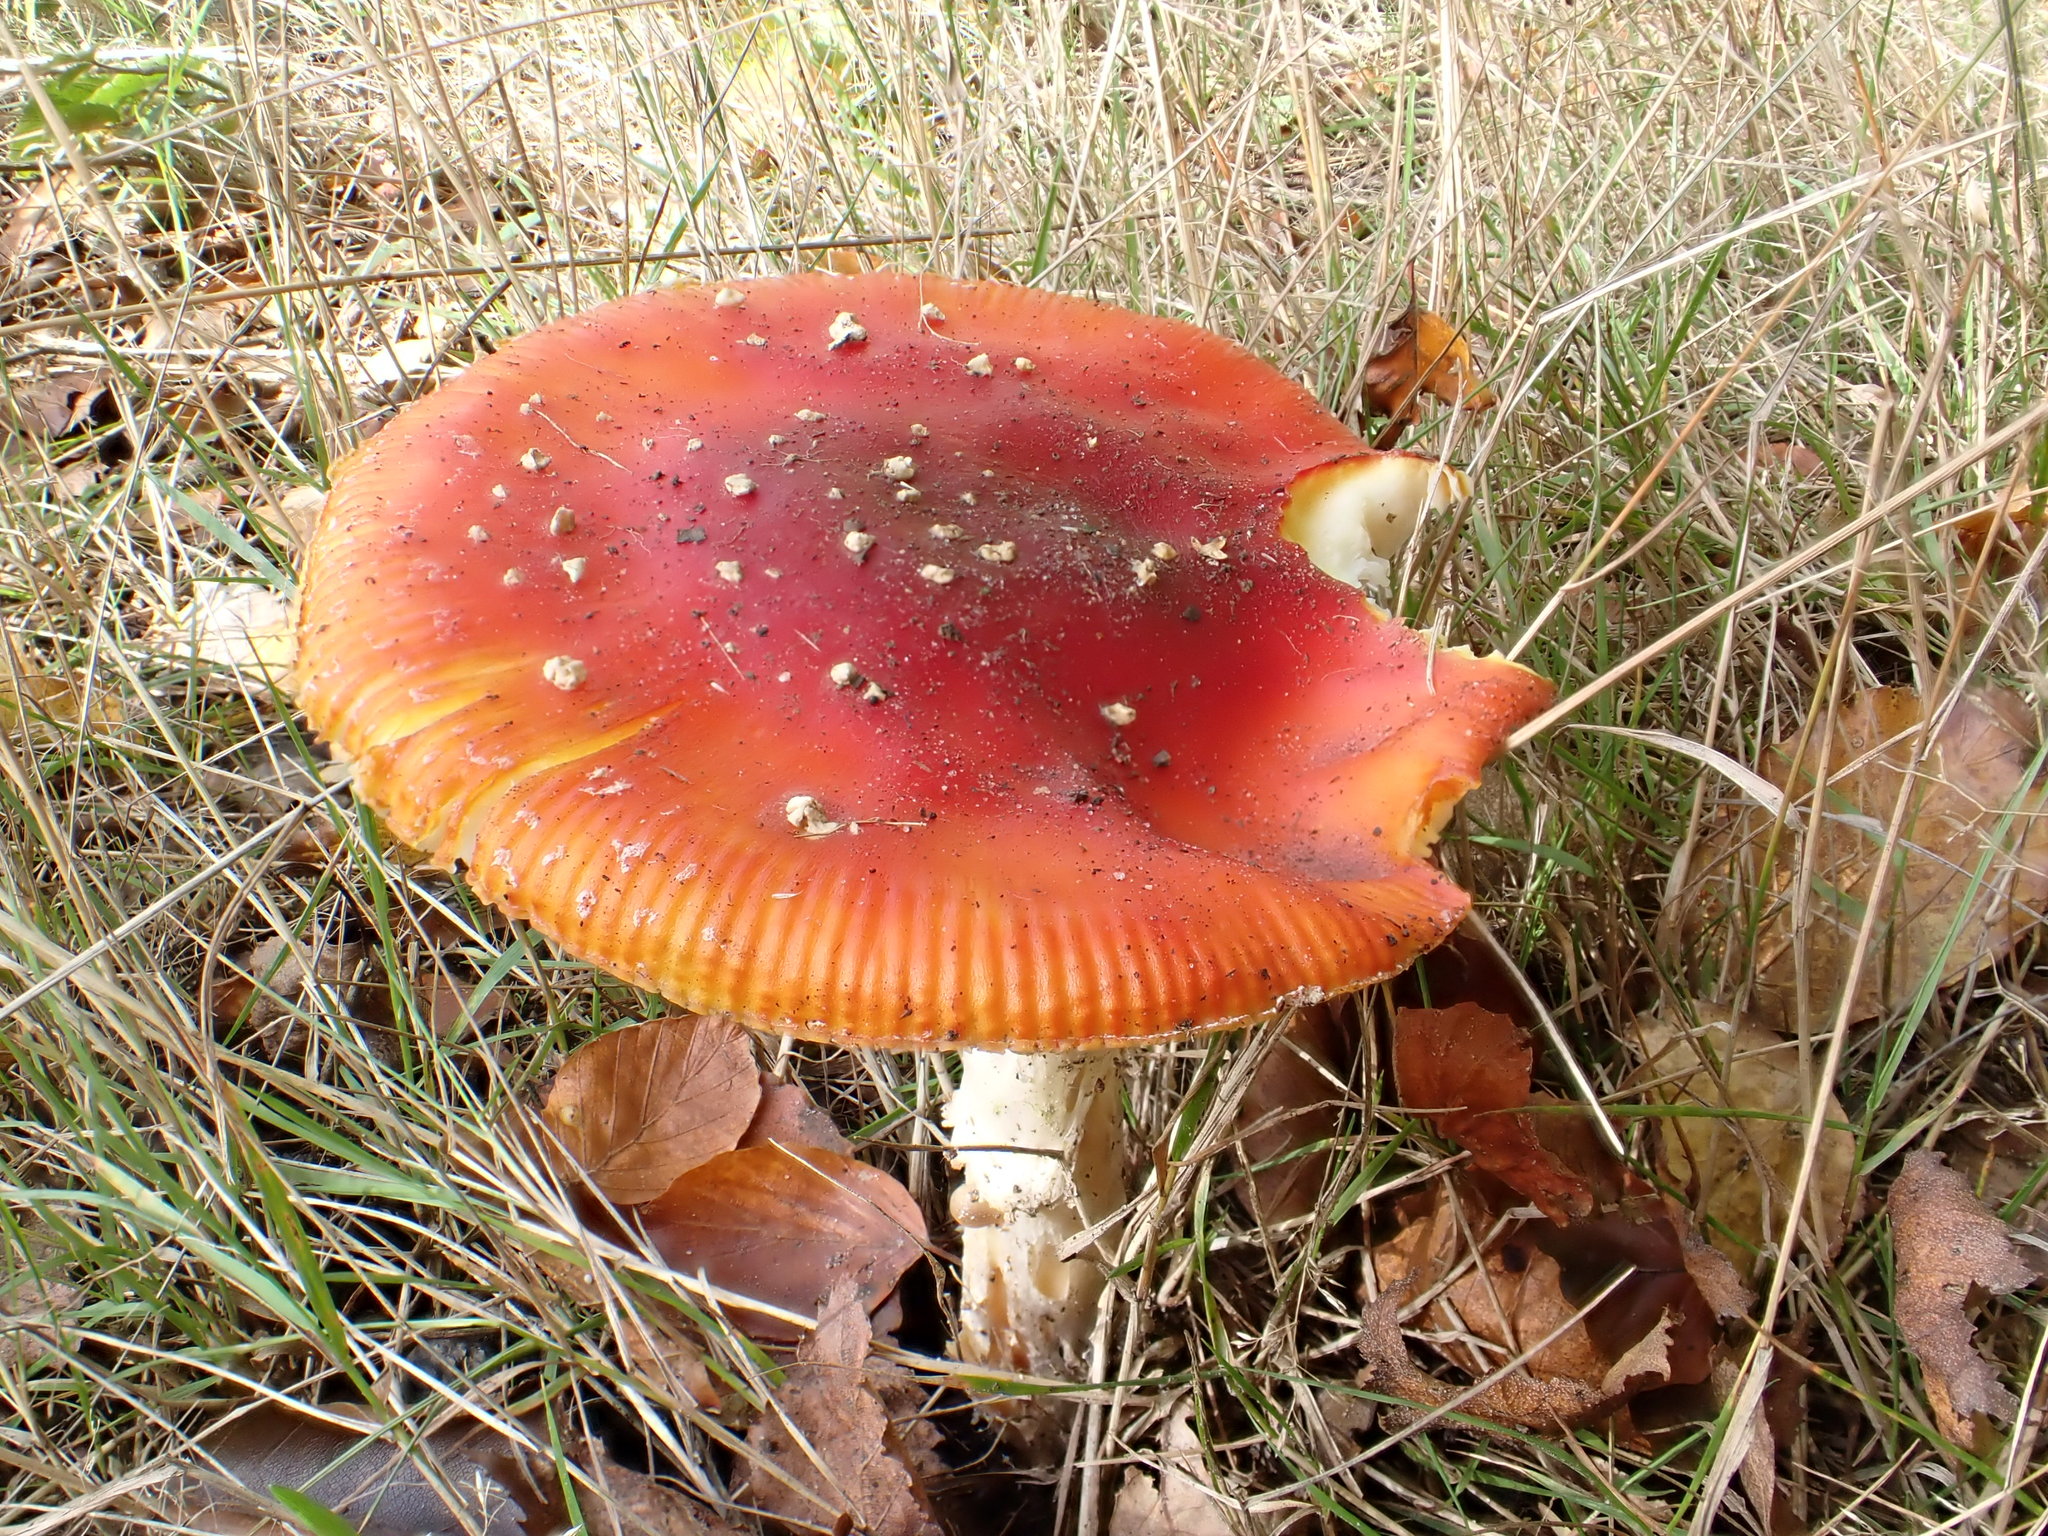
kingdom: Fungi
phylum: Basidiomycota
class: Agaricomycetes
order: Agaricales
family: Amanitaceae
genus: Amanita
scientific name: Amanita muscaria
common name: Fly agaric
